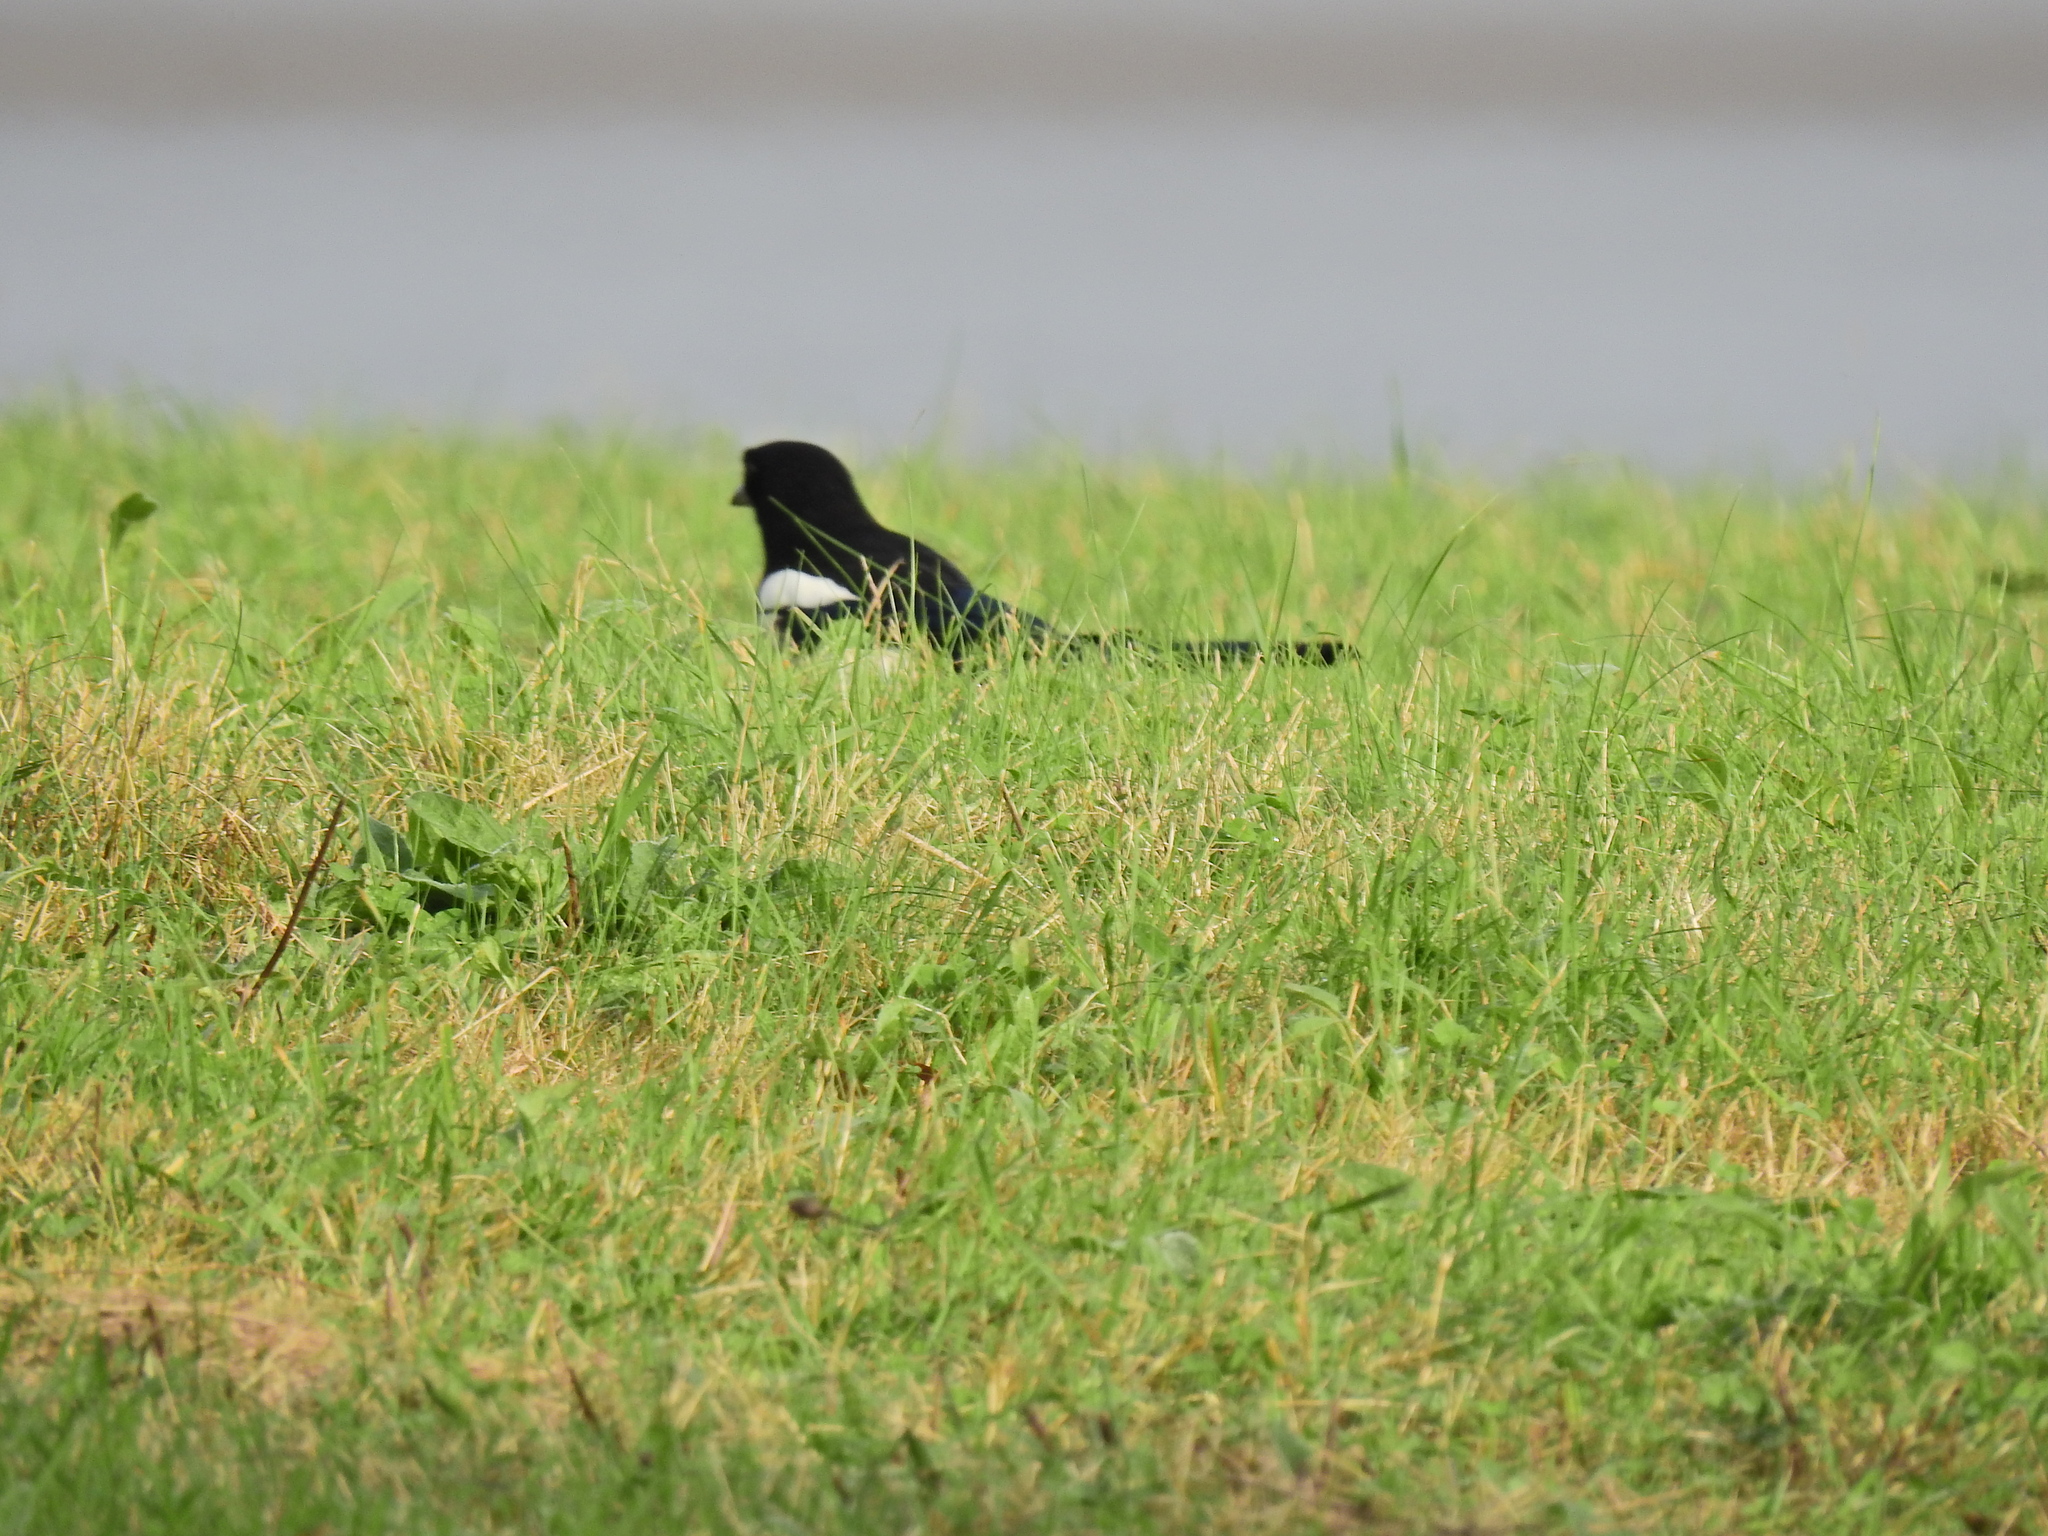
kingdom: Animalia
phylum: Chordata
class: Aves
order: Passeriformes
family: Corvidae
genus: Pica
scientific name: Pica pica
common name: Eurasian magpie
